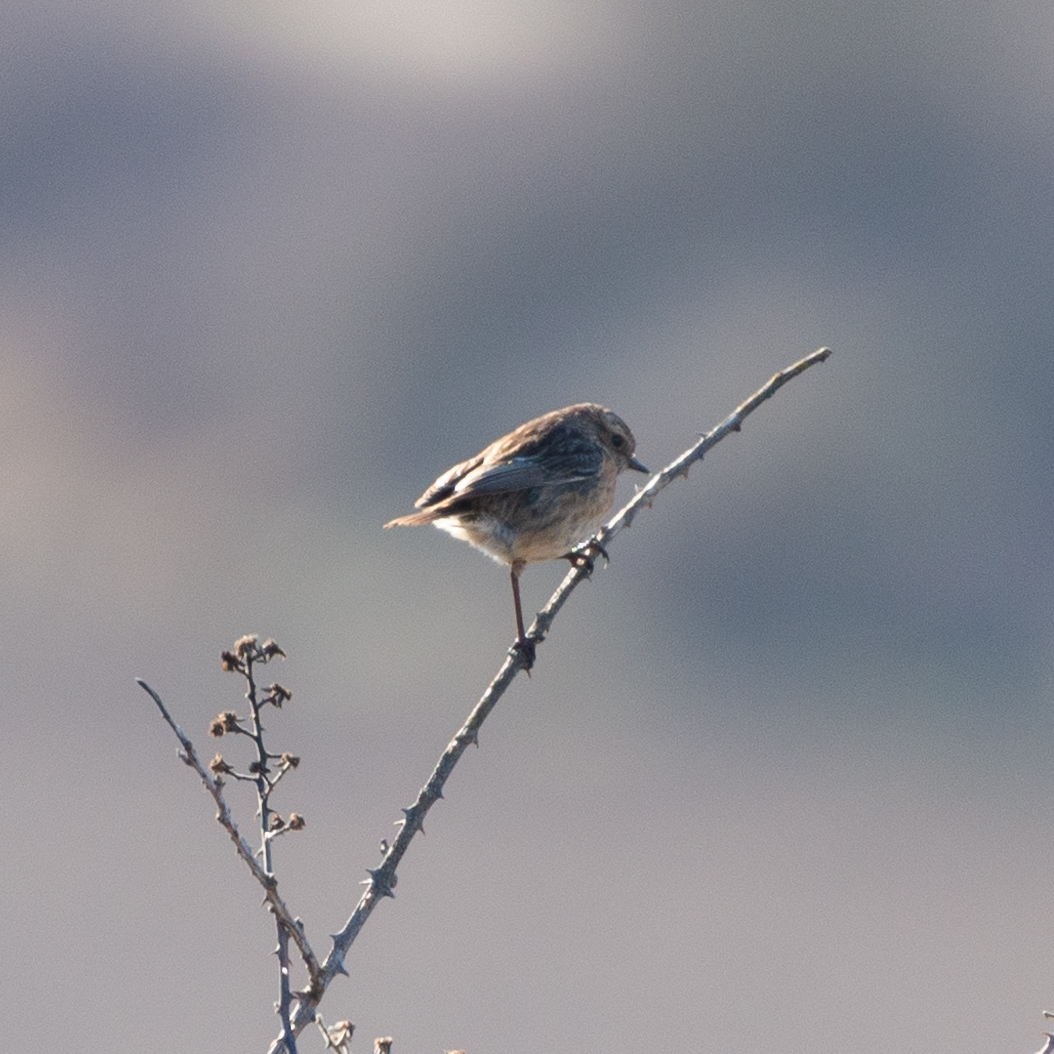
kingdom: Animalia
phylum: Chordata
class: Aves
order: Passeriformes
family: Muscicapidae
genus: Saxicola
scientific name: Saxicola rubicola
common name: European stonechat
